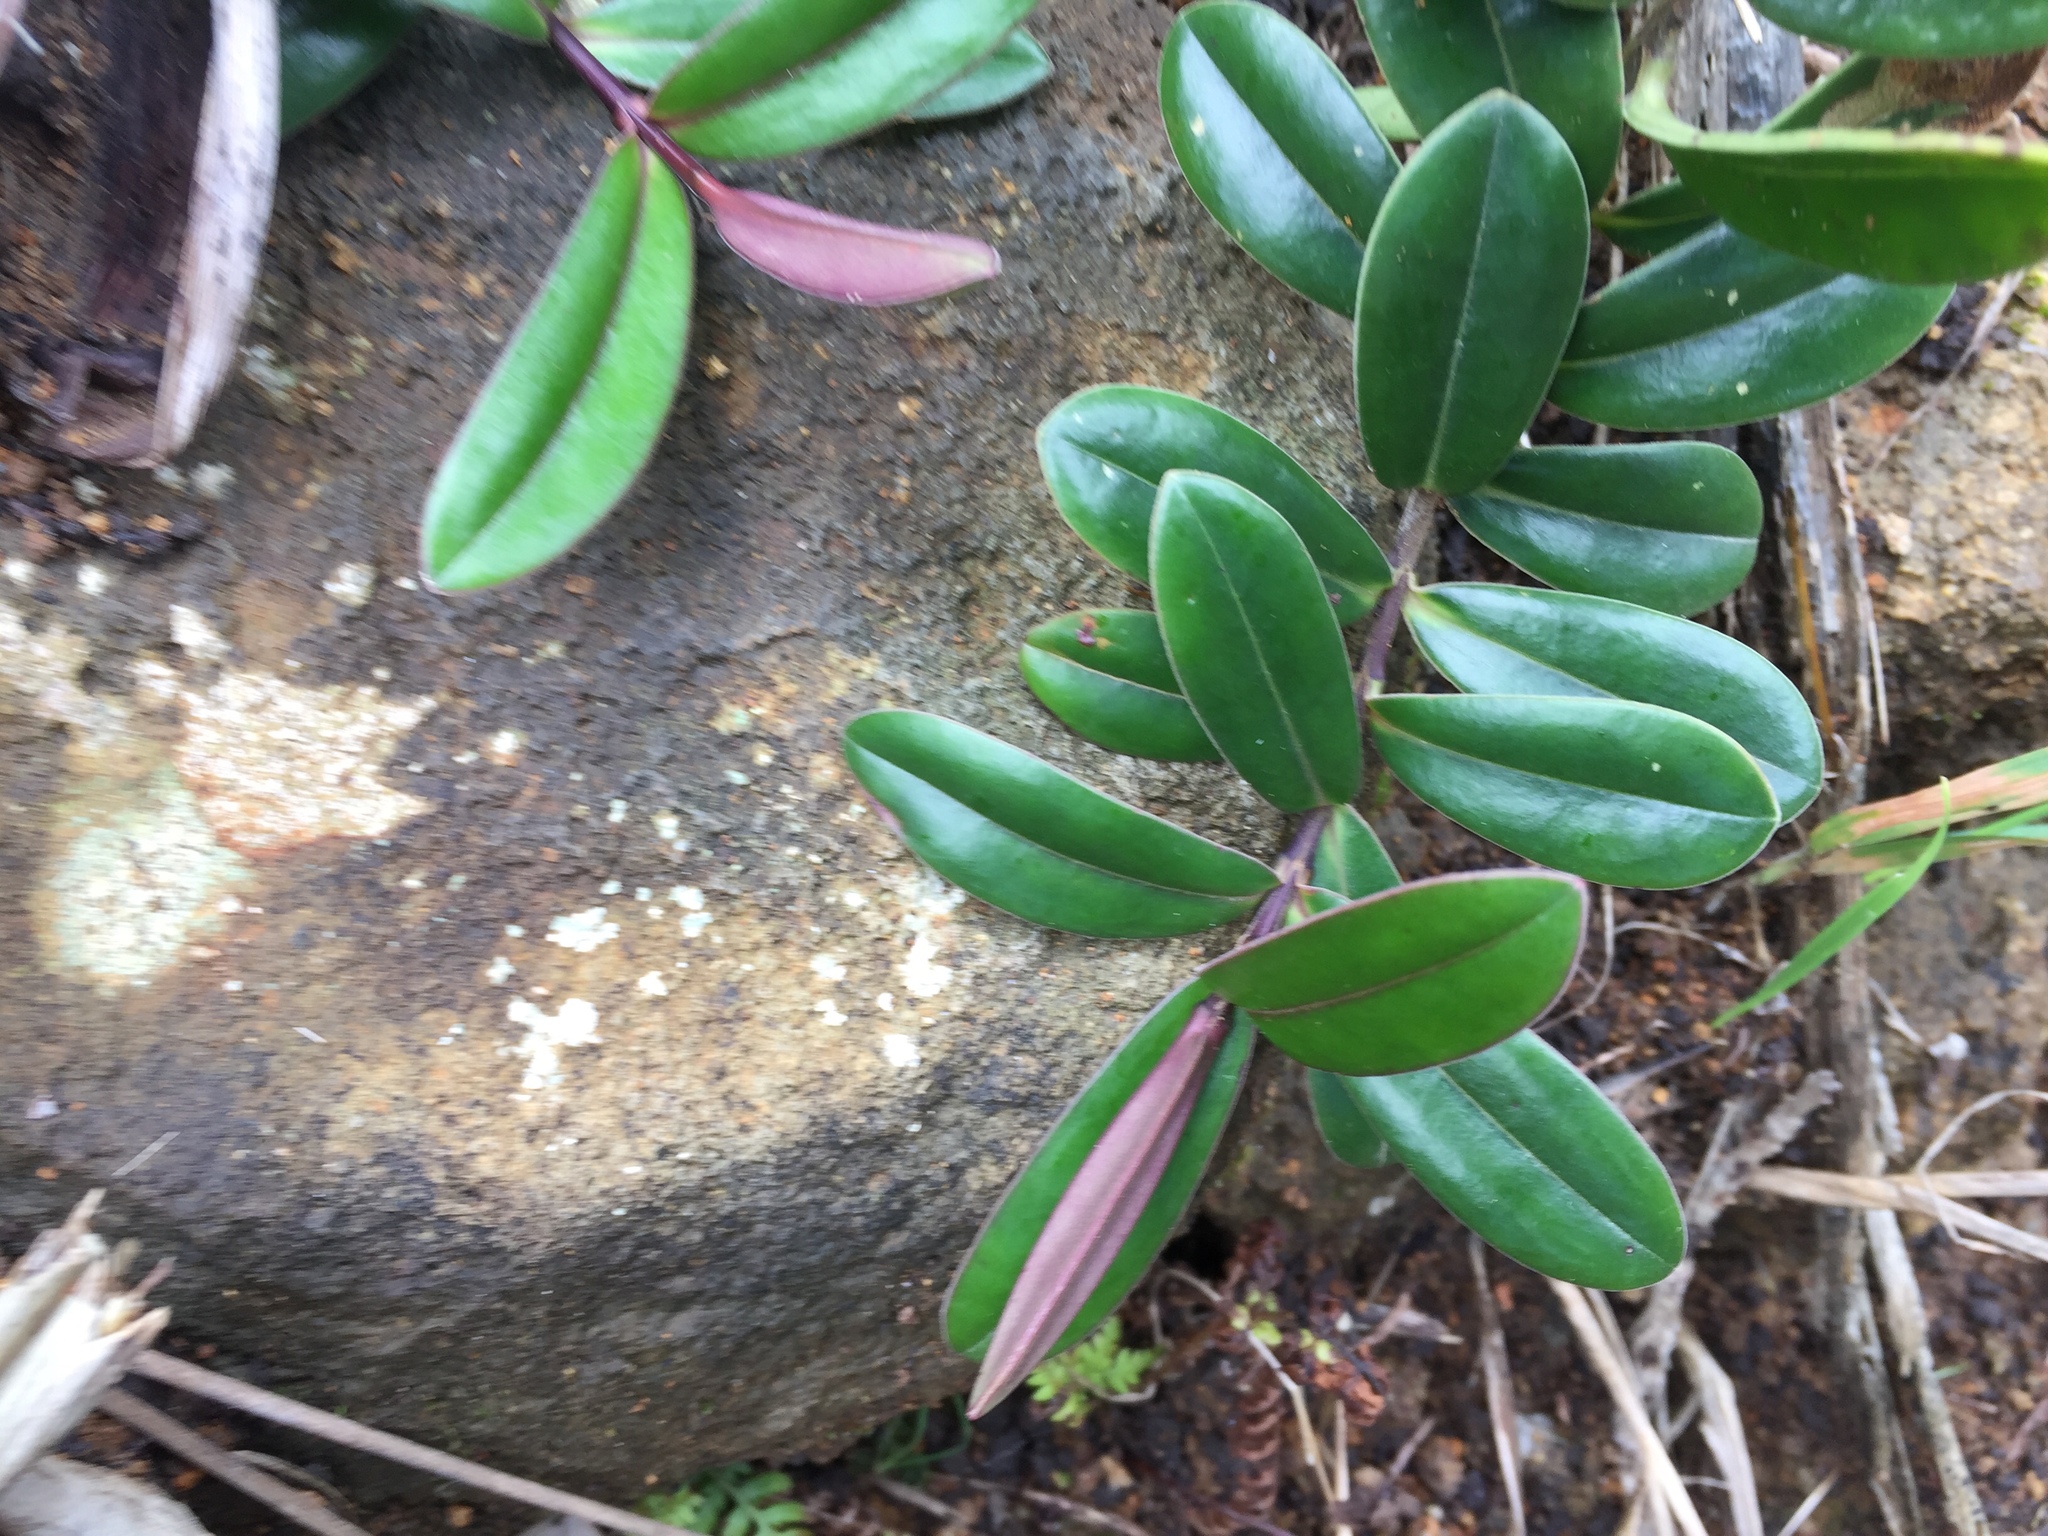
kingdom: Plantae
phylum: Tracheophyta
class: Magnoliopsida
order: Lamiales
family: Plantaginaceae
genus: Veronica
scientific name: Veronica obtusata
